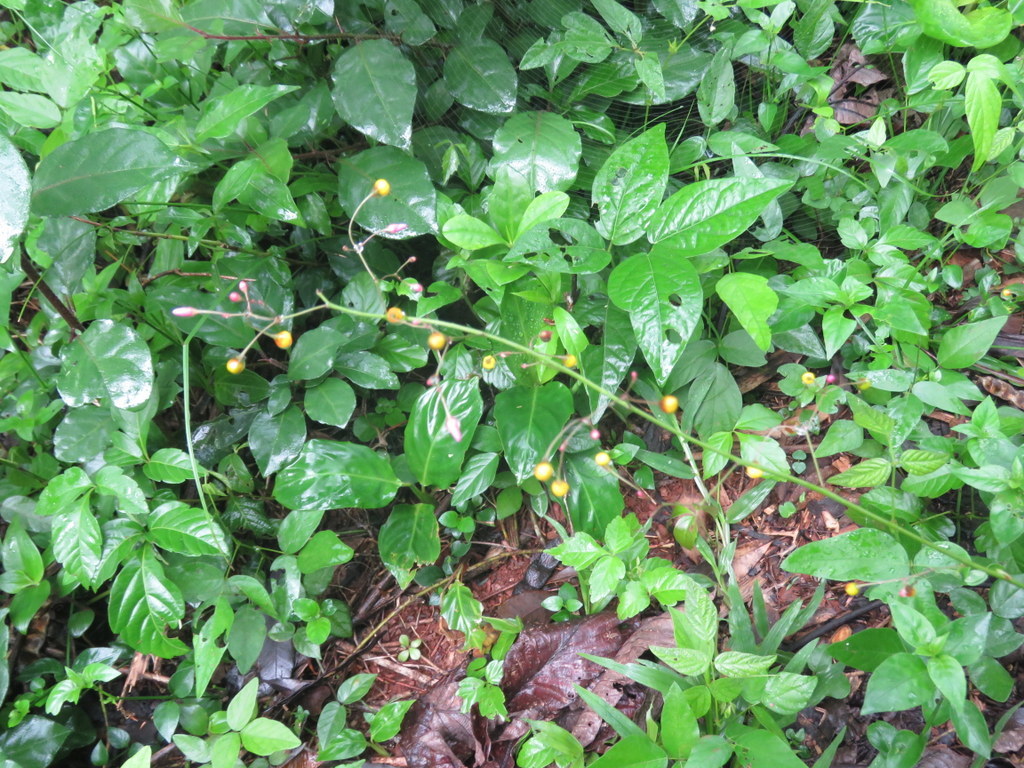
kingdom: Plantae
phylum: Tracheophyta
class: Magnoliopsida
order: Caryophyllales
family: Talinaceae
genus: Talinum
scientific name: Talinum paniculatum
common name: Jewels of opar
